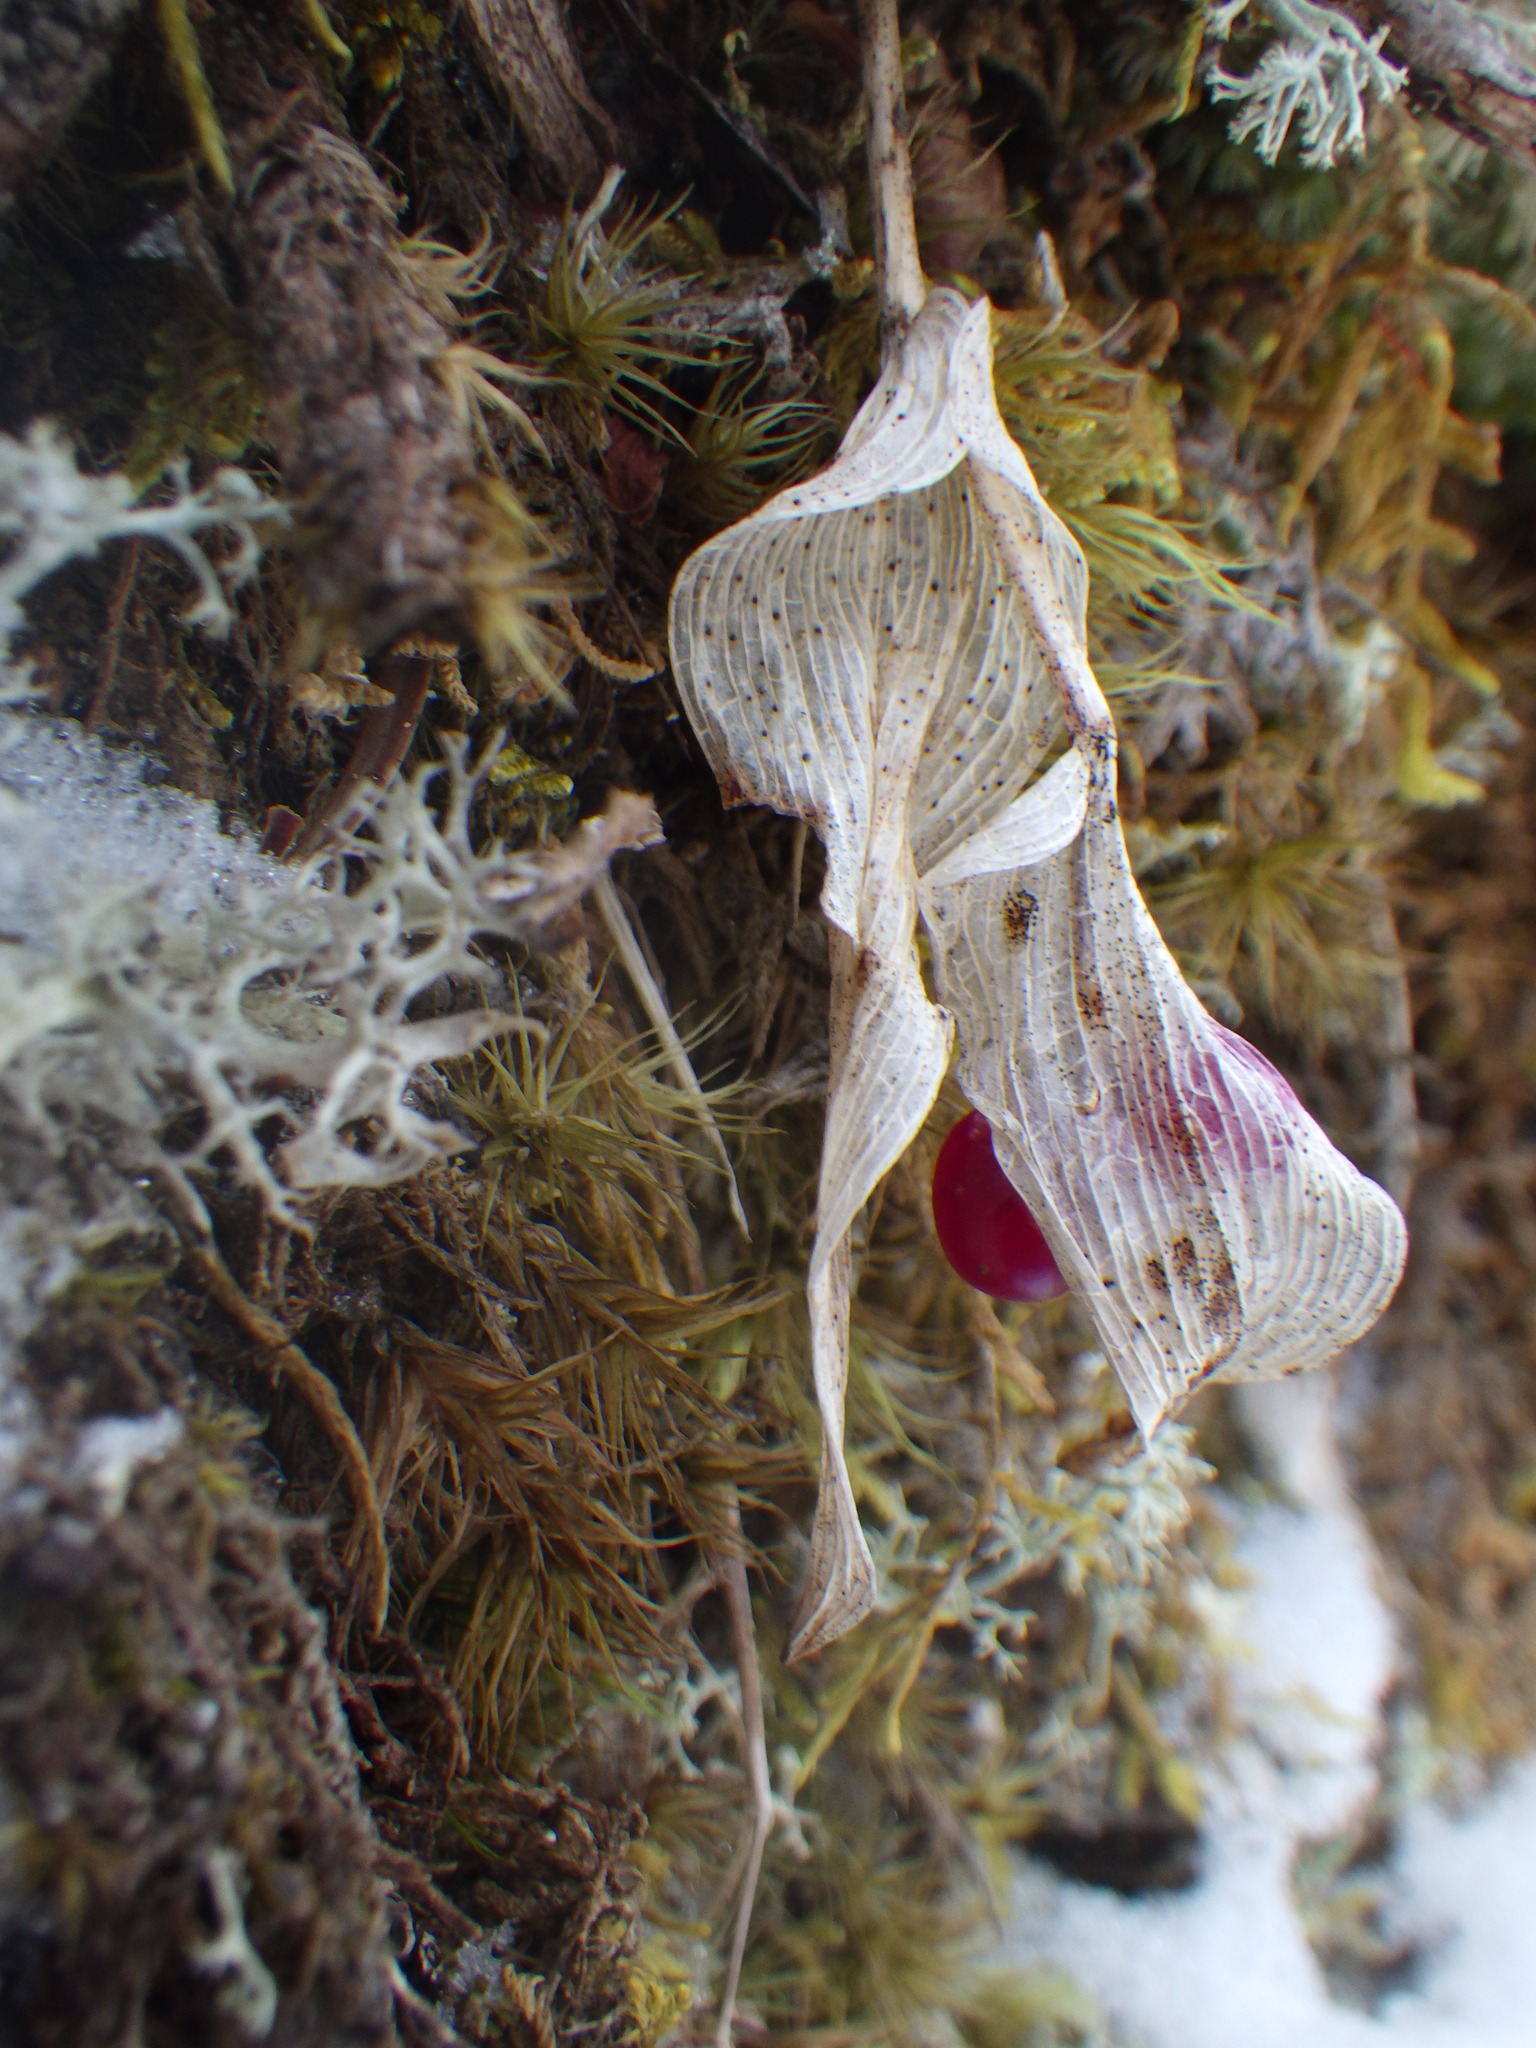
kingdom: Plantae
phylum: Tracheophyta
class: Liliopsida
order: Asparagales
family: Asparagaceae
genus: Maianthemum
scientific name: Maianthemum canadense
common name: False lily-of-the-valley
